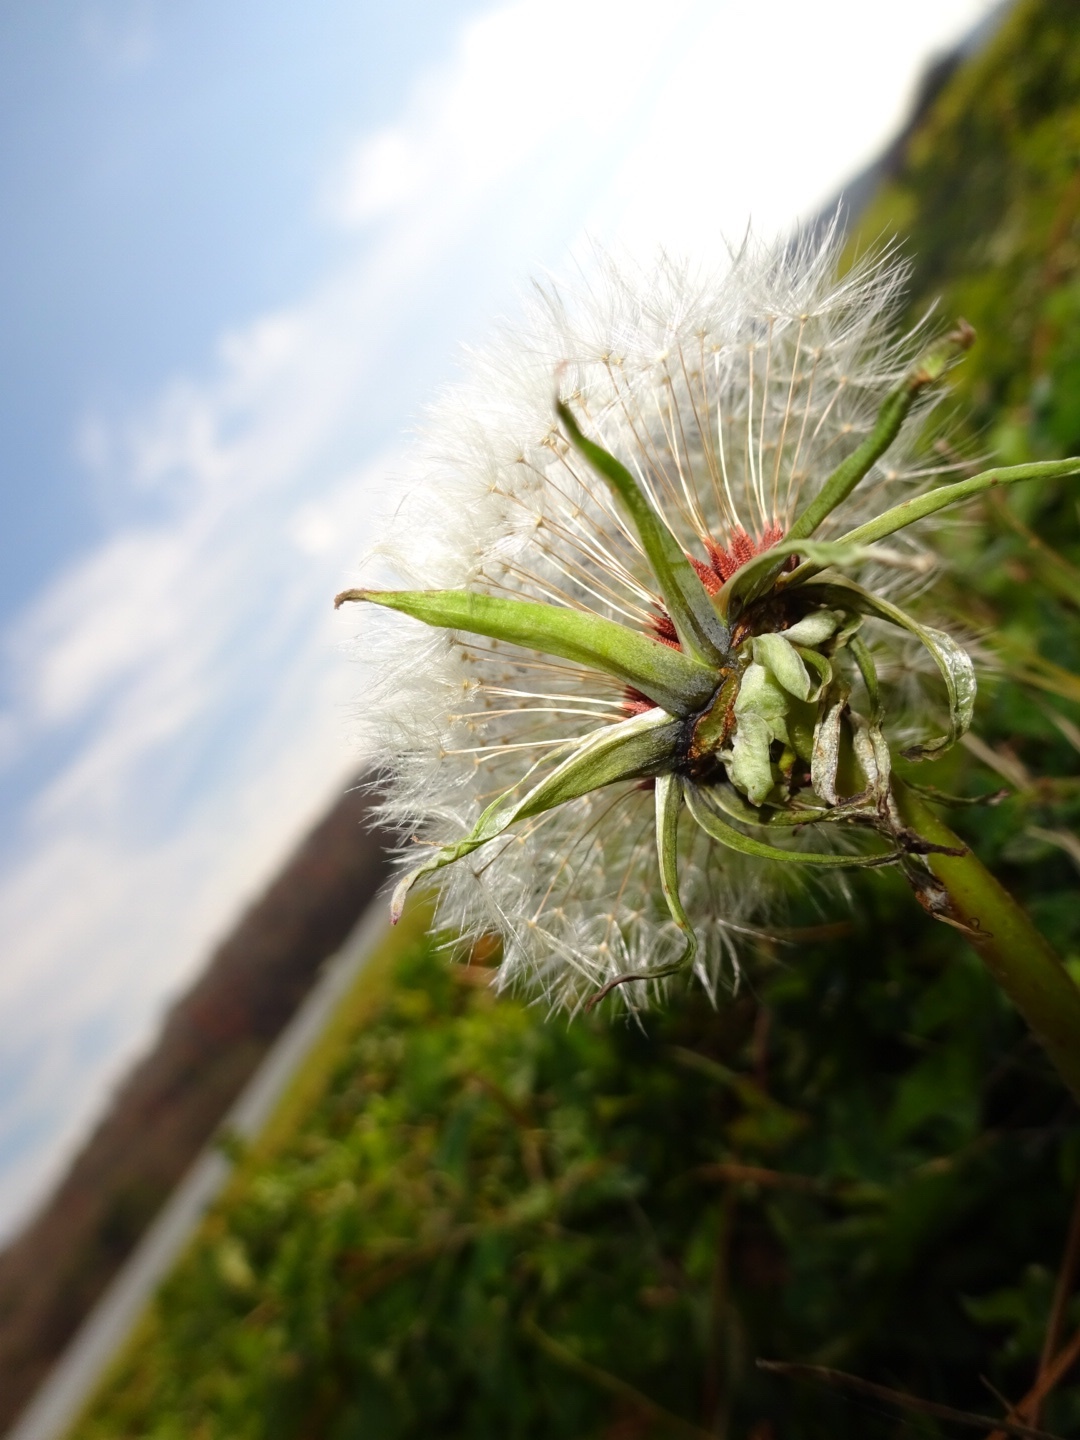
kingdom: Plantae
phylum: Tracheophyta
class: Magnoliopsida
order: Asterales
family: Asteraceae
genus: Taraxacum
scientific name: Taraxacum
